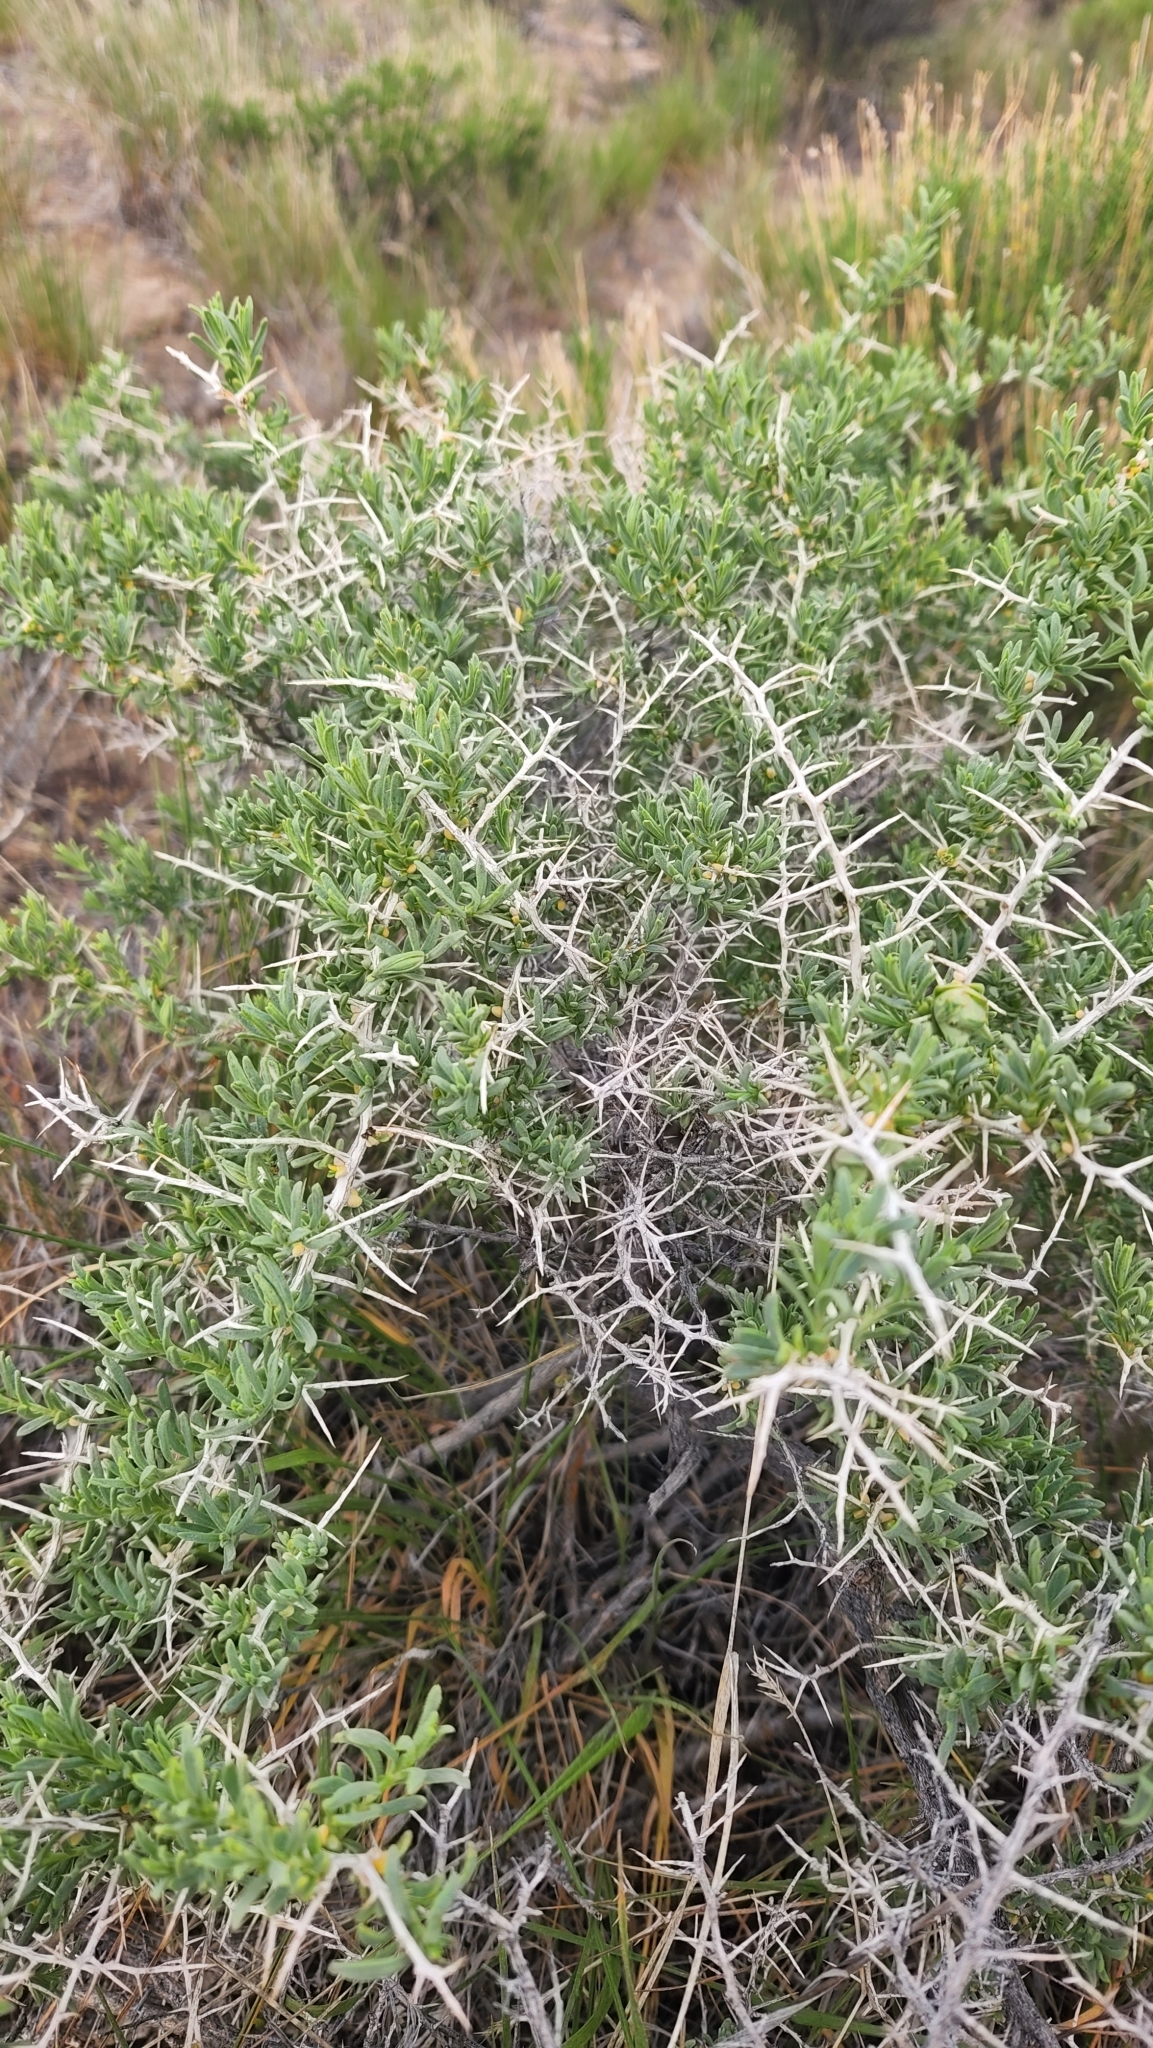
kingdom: Plantae
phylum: Tracheophyta
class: Magnoliopsida
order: Caryophyllales
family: Sarcobataceae
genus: Sarcobatus
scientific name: Sarcobatus vermiculatus
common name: Greasewood
